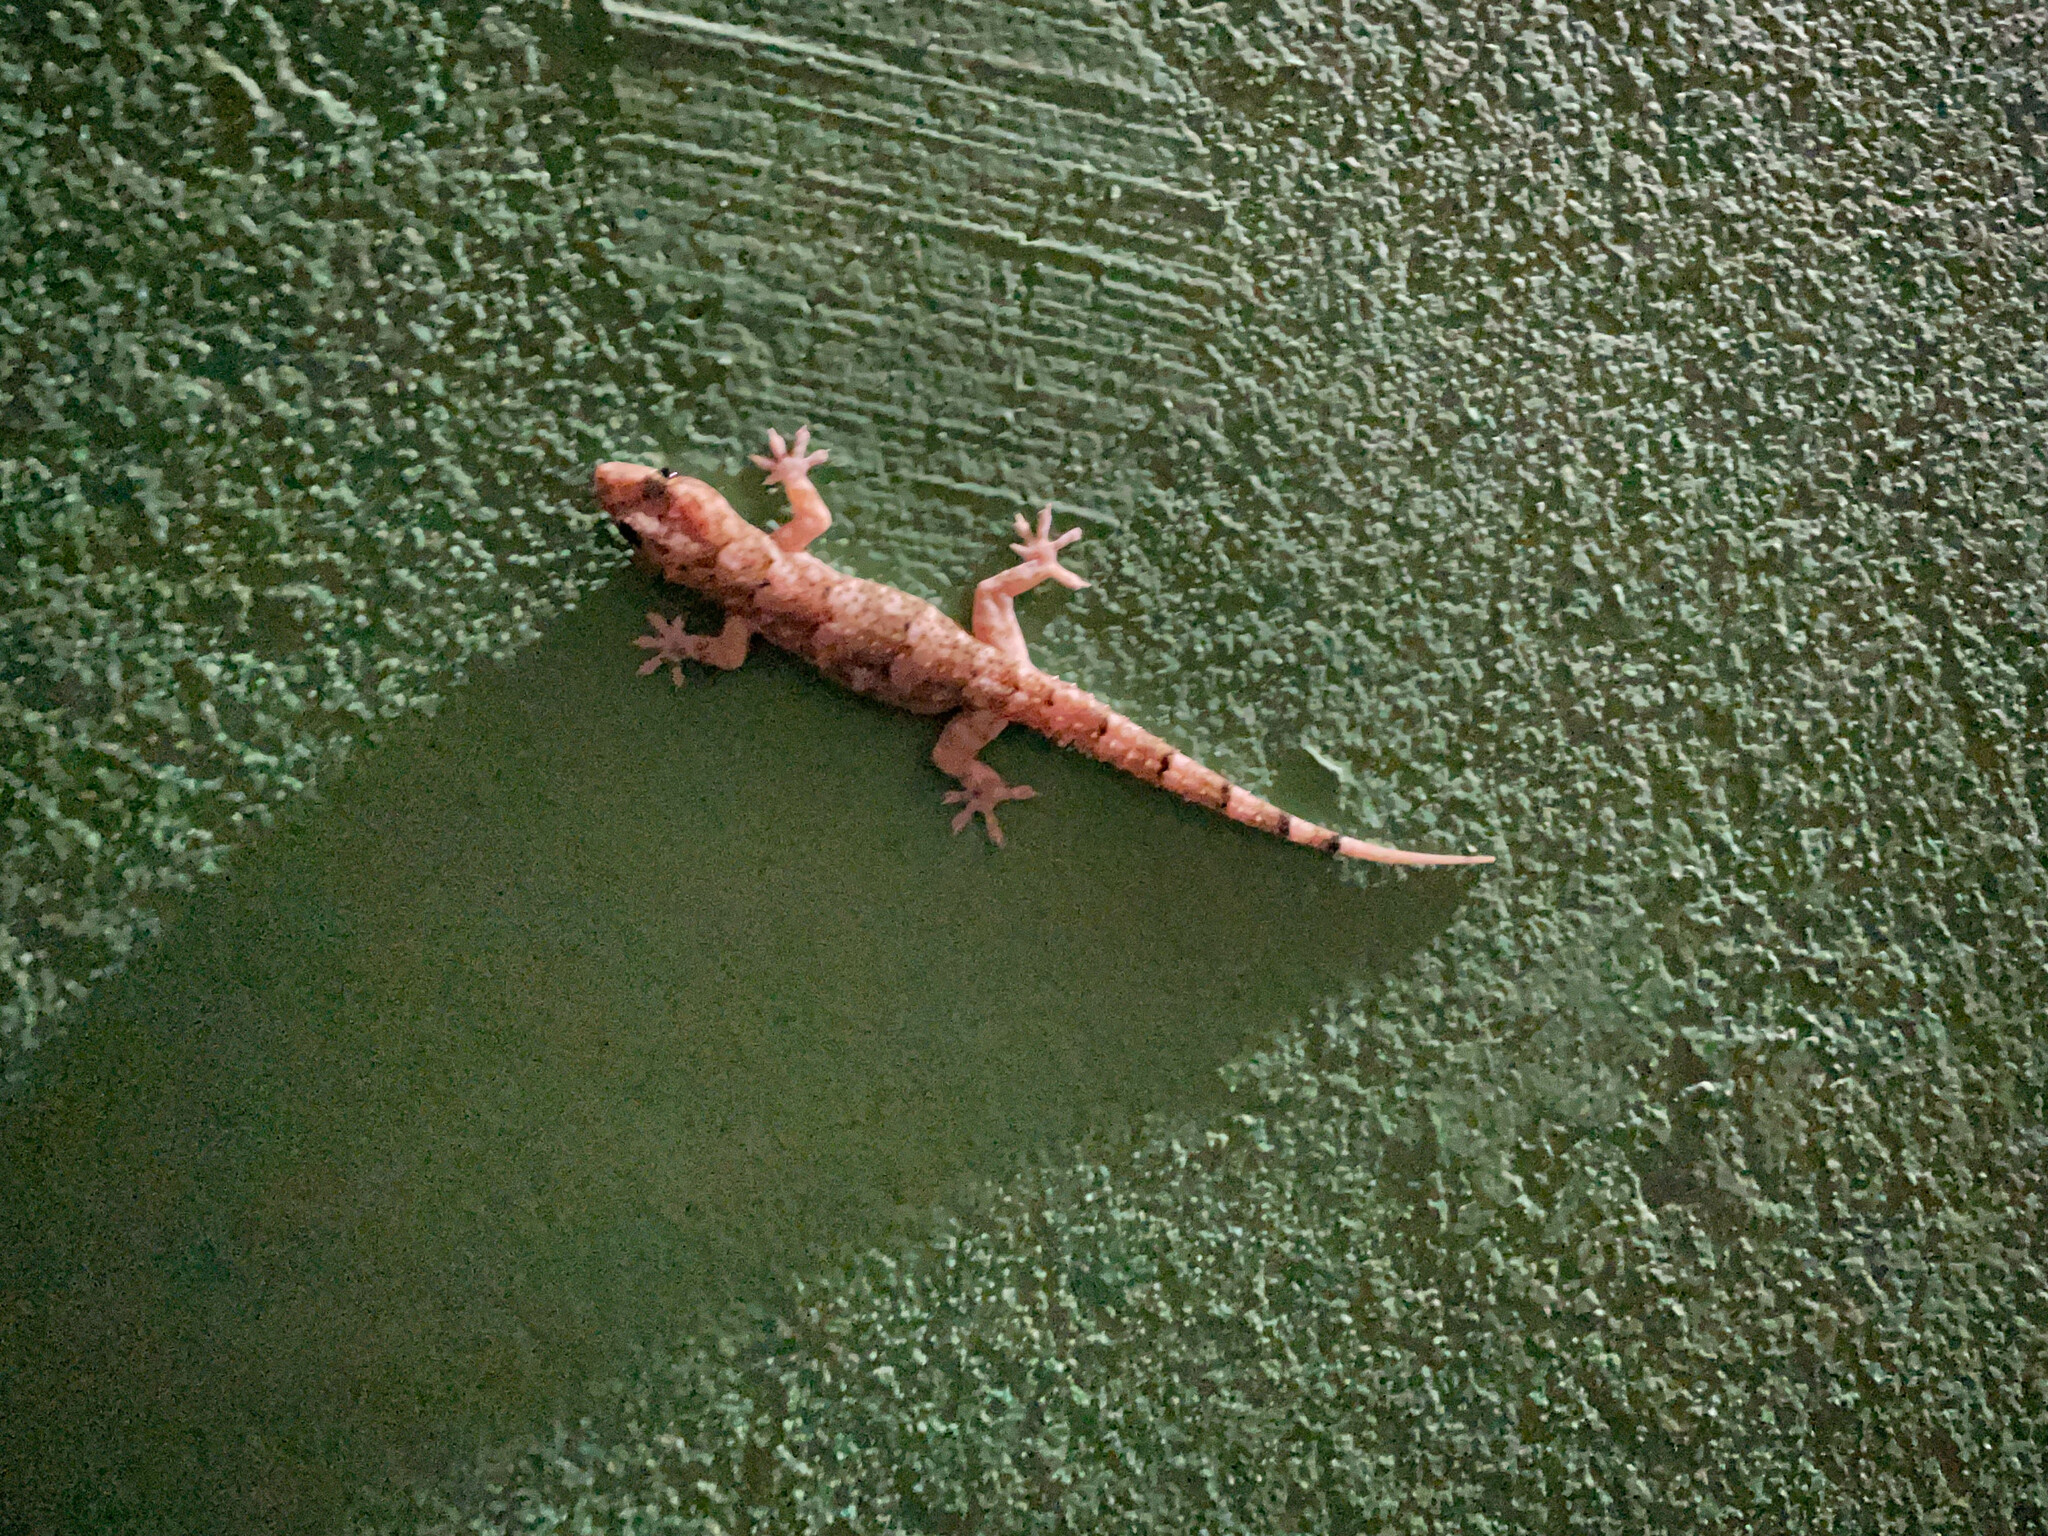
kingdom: Animalia
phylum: Chordata
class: Squamata
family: Gekkonidae
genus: Hemidactylus
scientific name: Hemidactylus mabouia
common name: House gecko
